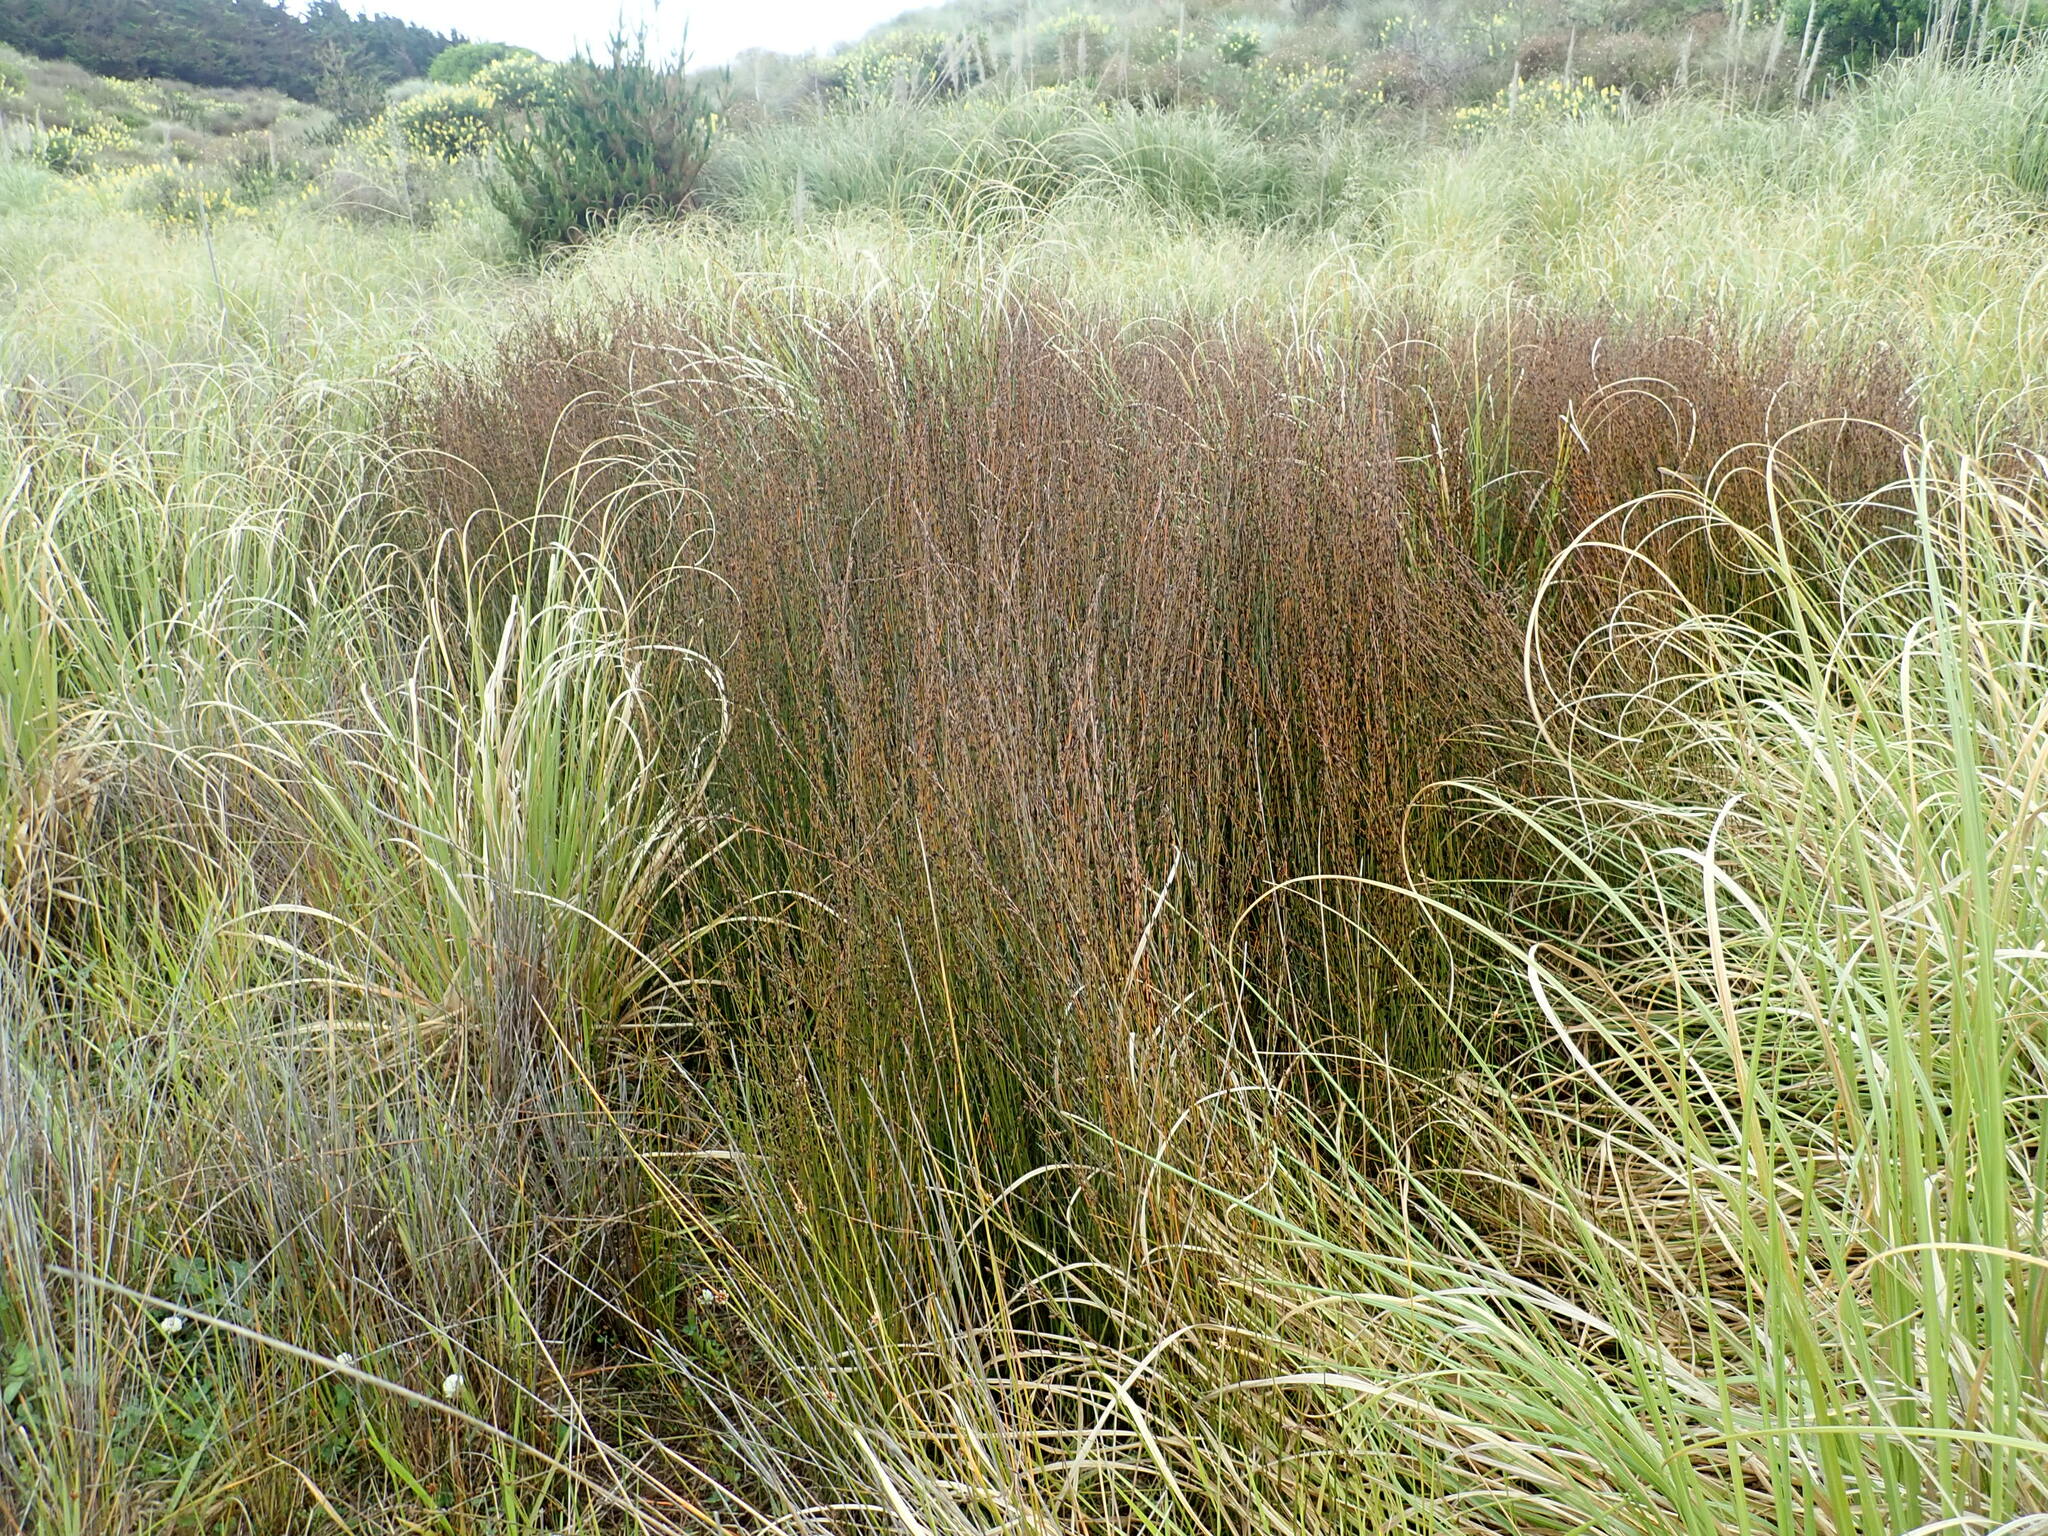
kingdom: Plantae
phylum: Tracheophyta
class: Liliopsida
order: Poales
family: Restionaceae
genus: Apodasmia
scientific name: Apodasmia similis
